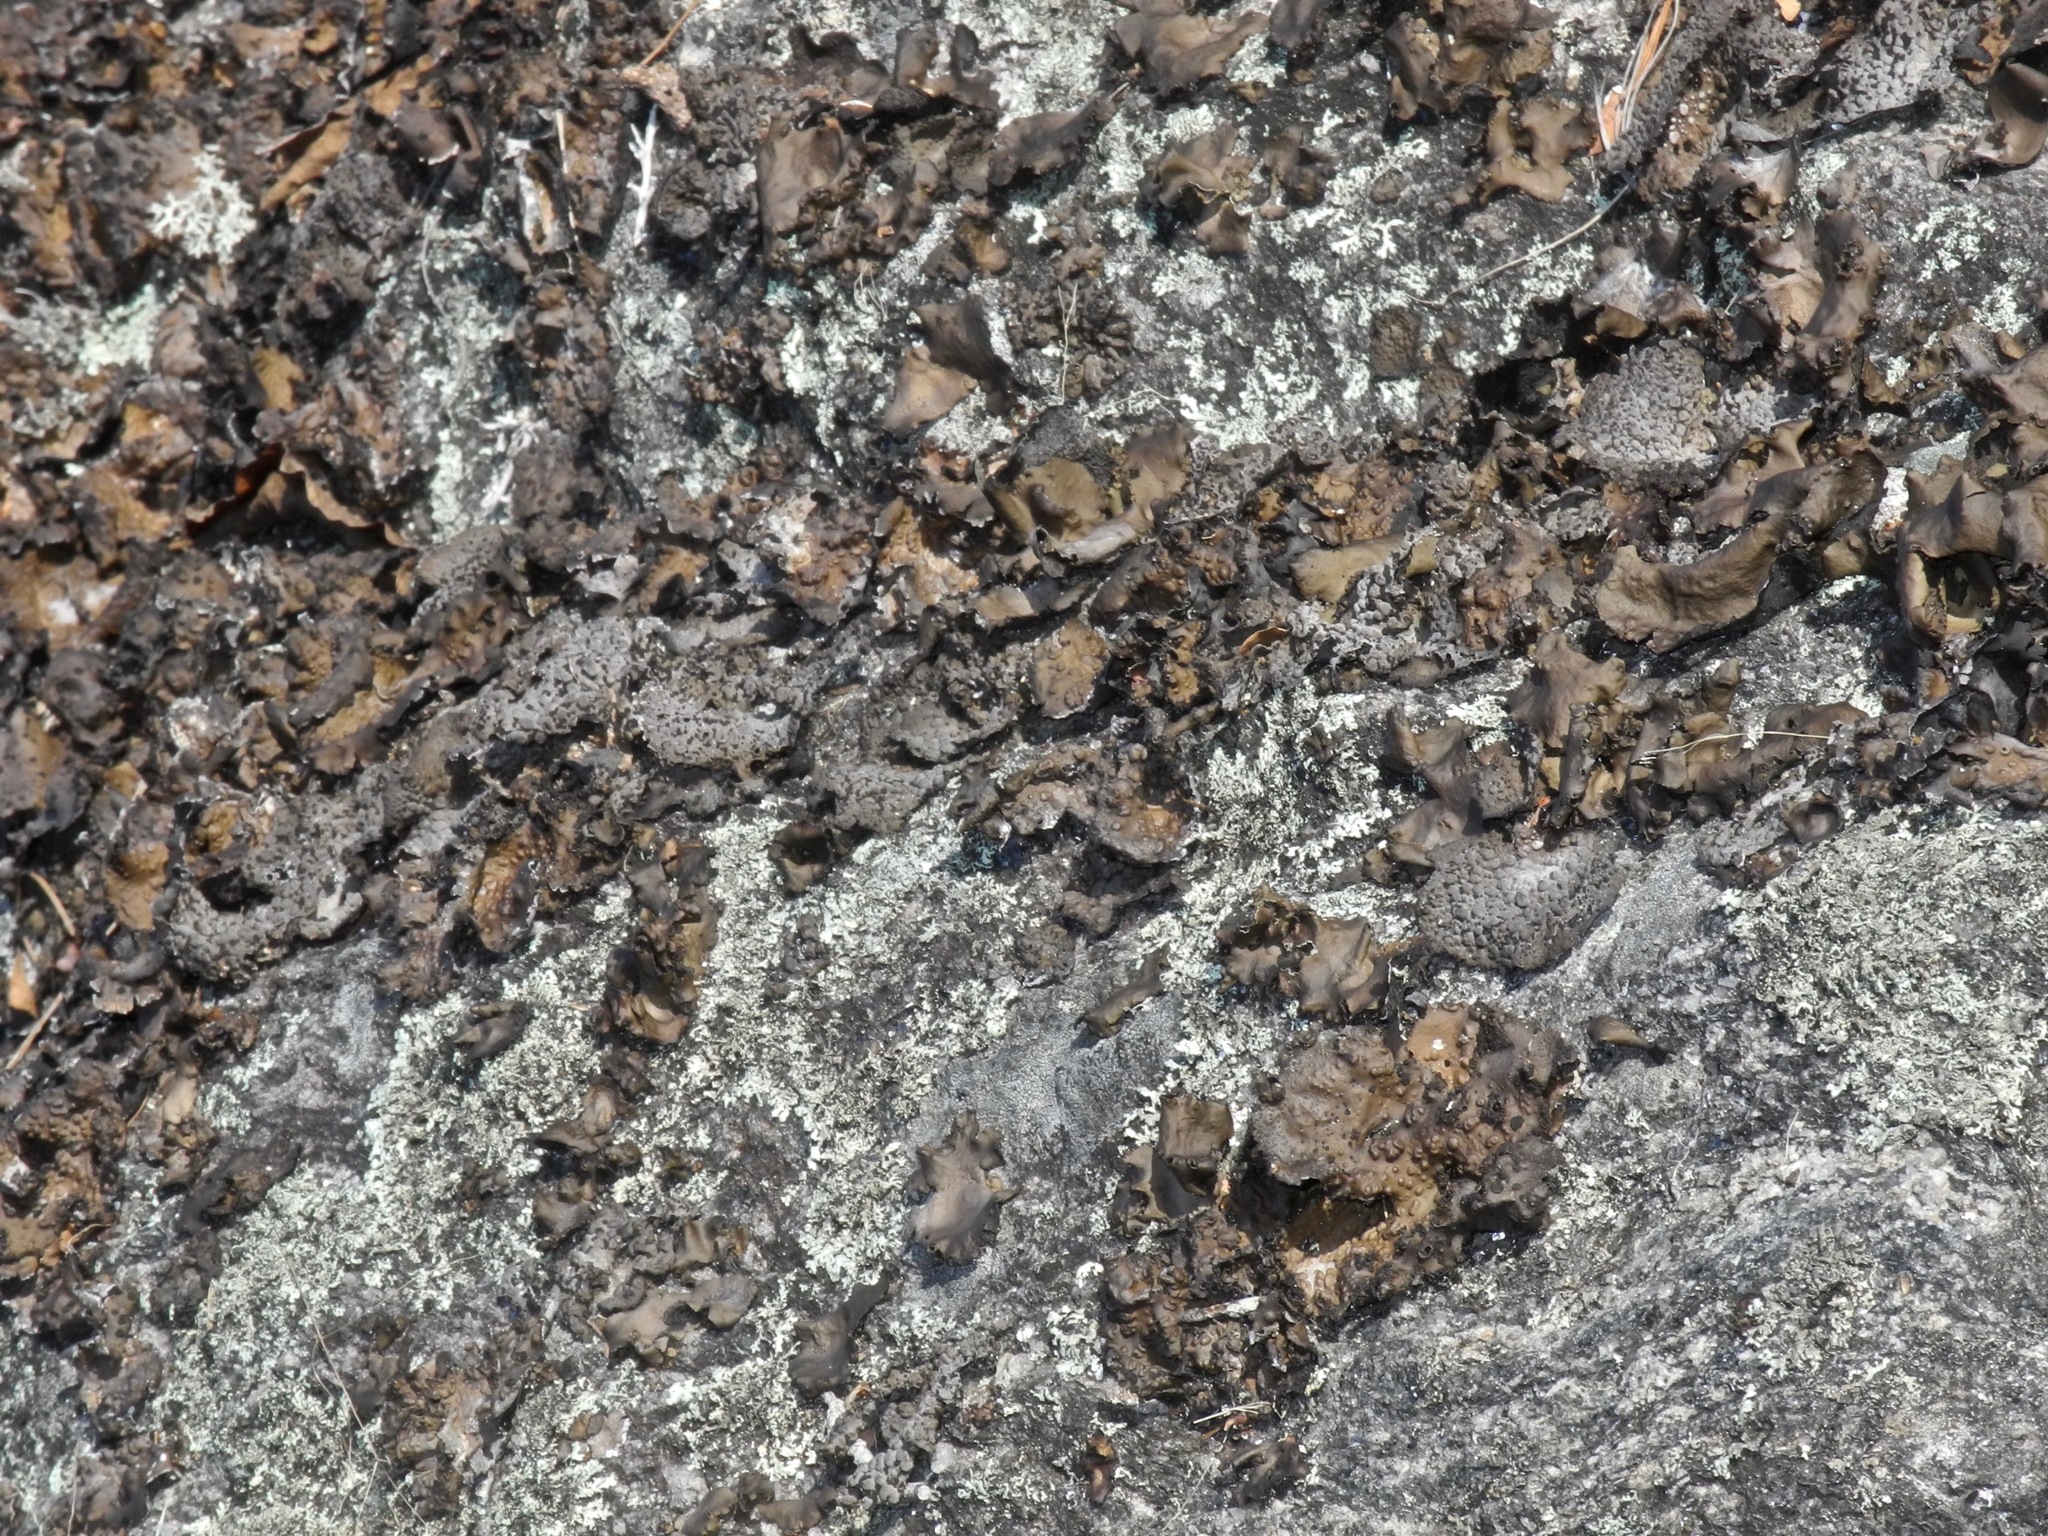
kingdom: Fungi
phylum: Ascomycota
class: Lecanoromycetes
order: Umbilicariales
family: Umbilicariaceae
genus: Lasallia
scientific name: Lasallia pensylvanica
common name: Blackened toadskin lichen
